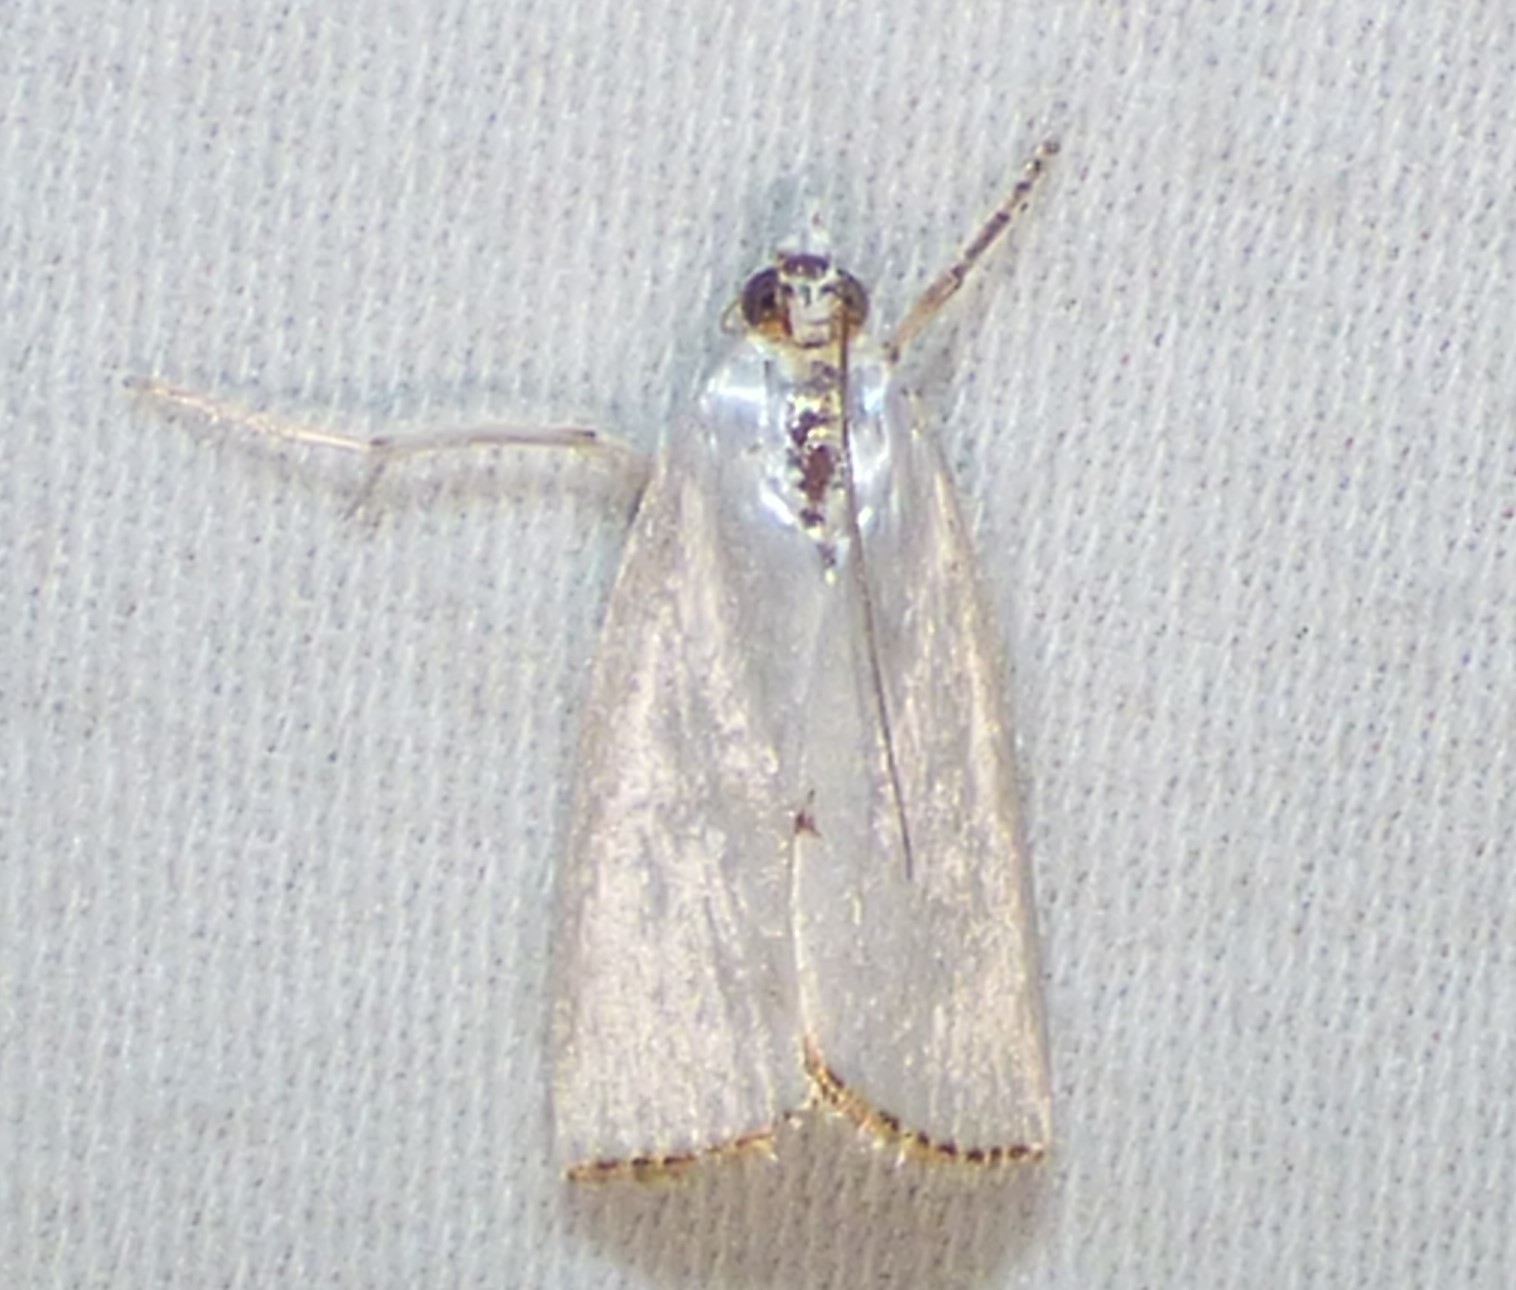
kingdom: Animalia
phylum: Arthropoda
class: Insecta
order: Lepidoptera
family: Crambidae
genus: Argyria
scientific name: Argyria nivalis
